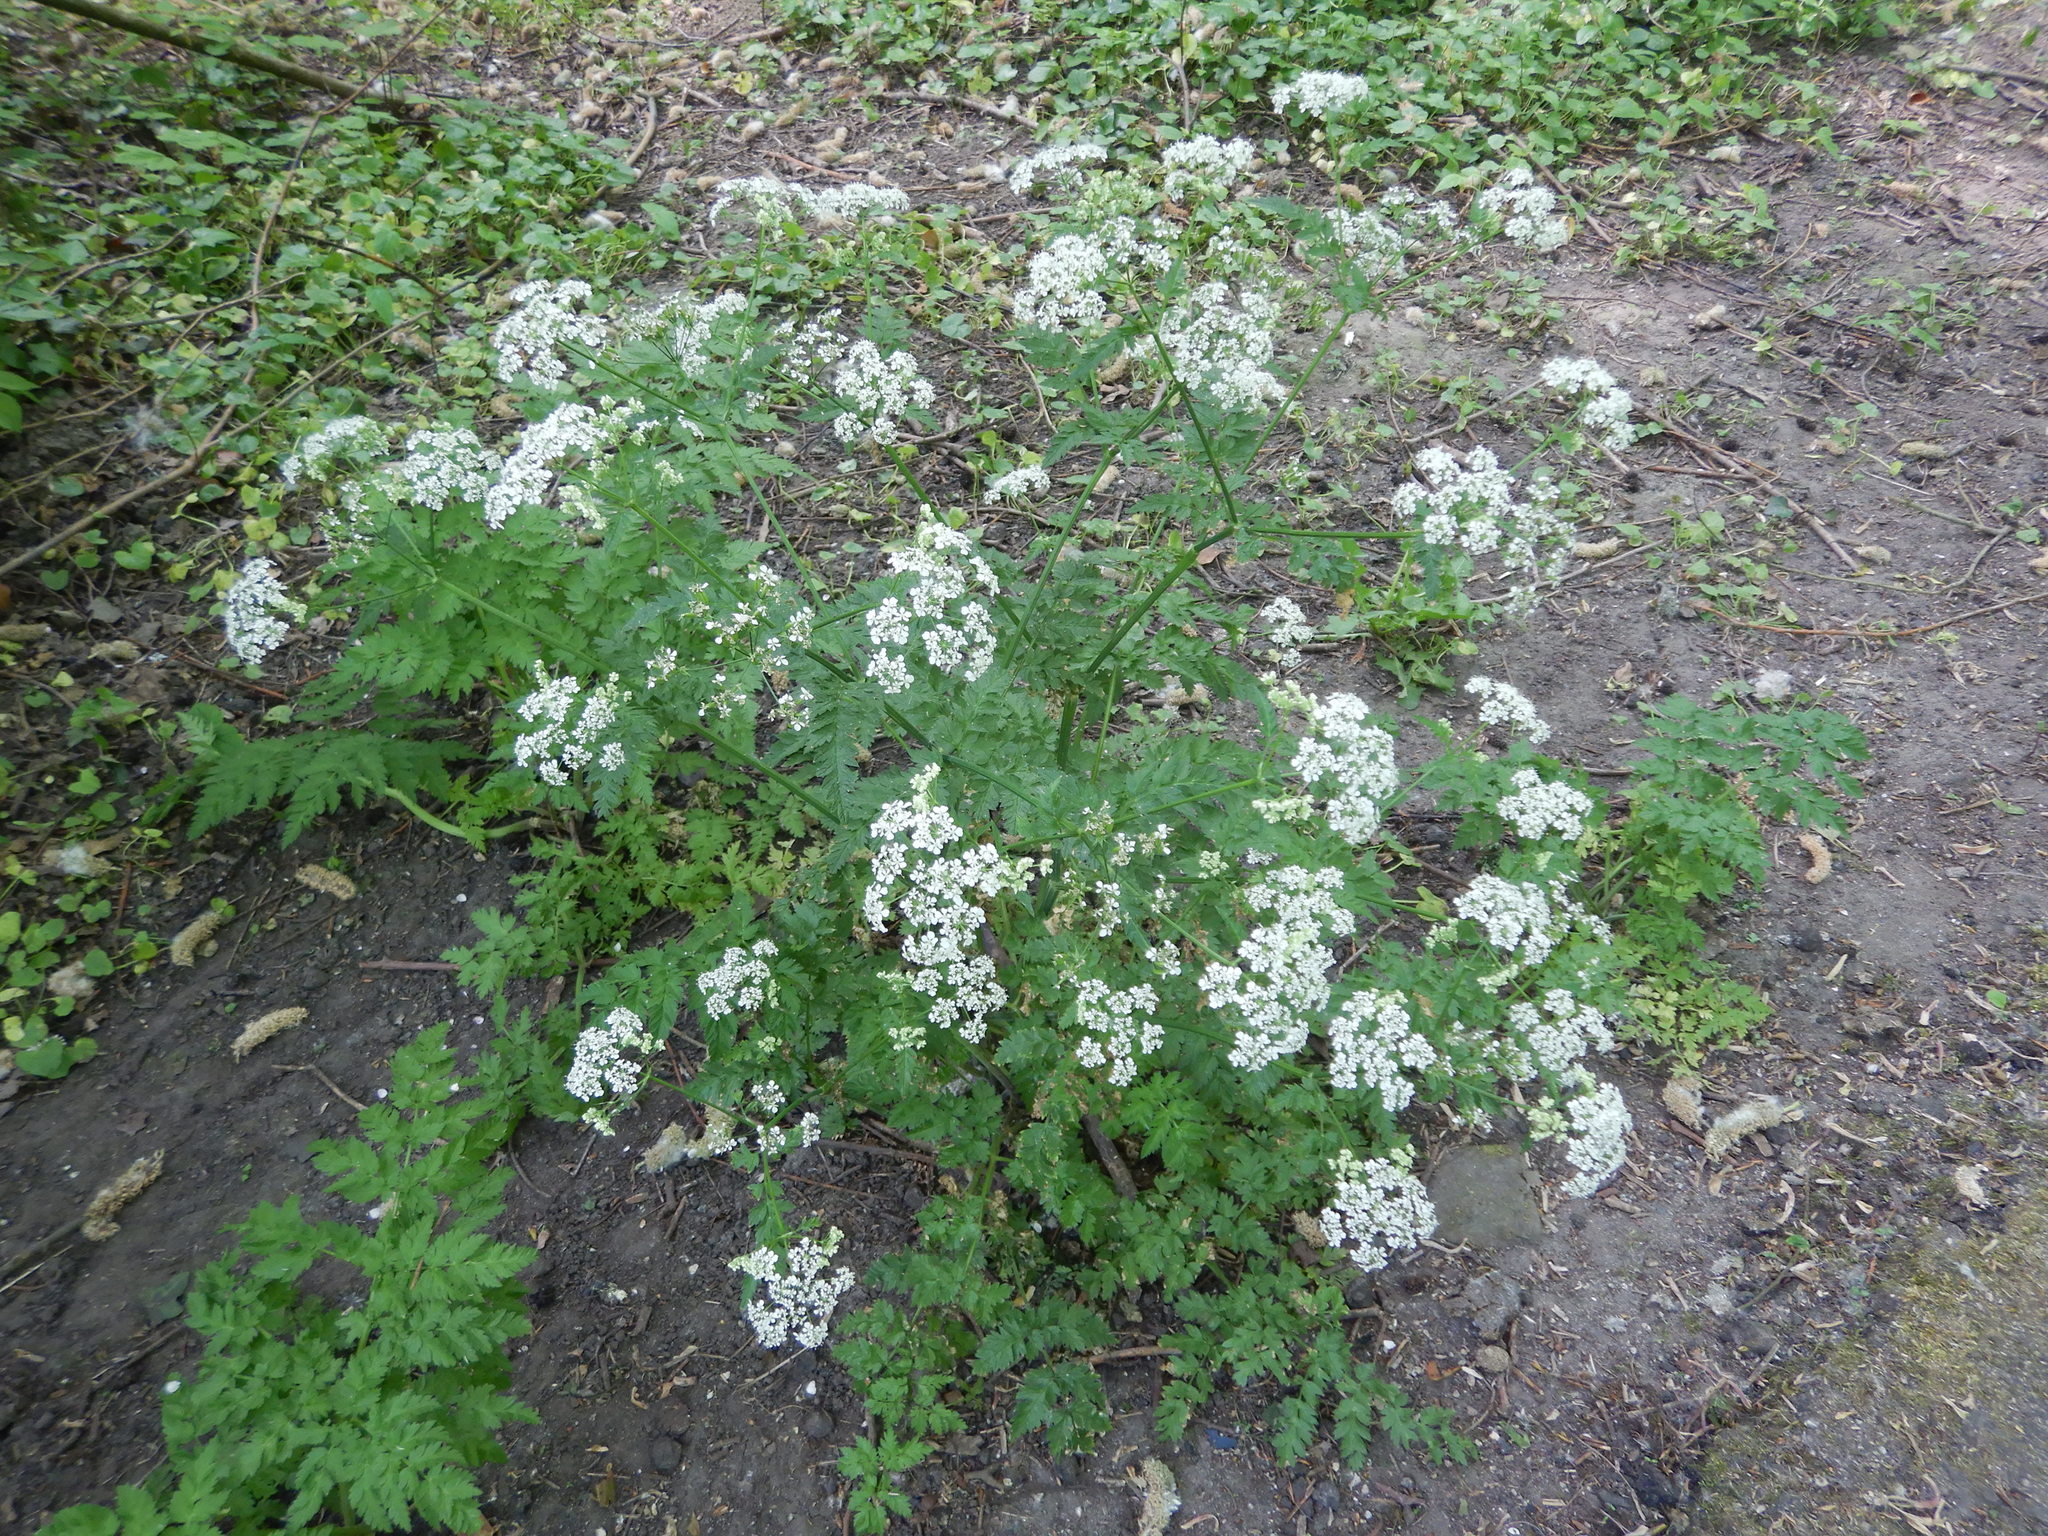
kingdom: Plantae
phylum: Tracheophyta
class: Magnoliopsida
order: Apiales
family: Apiaceae
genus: Anthriscus
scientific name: Anthriscus sylvestris
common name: Cow parsley
